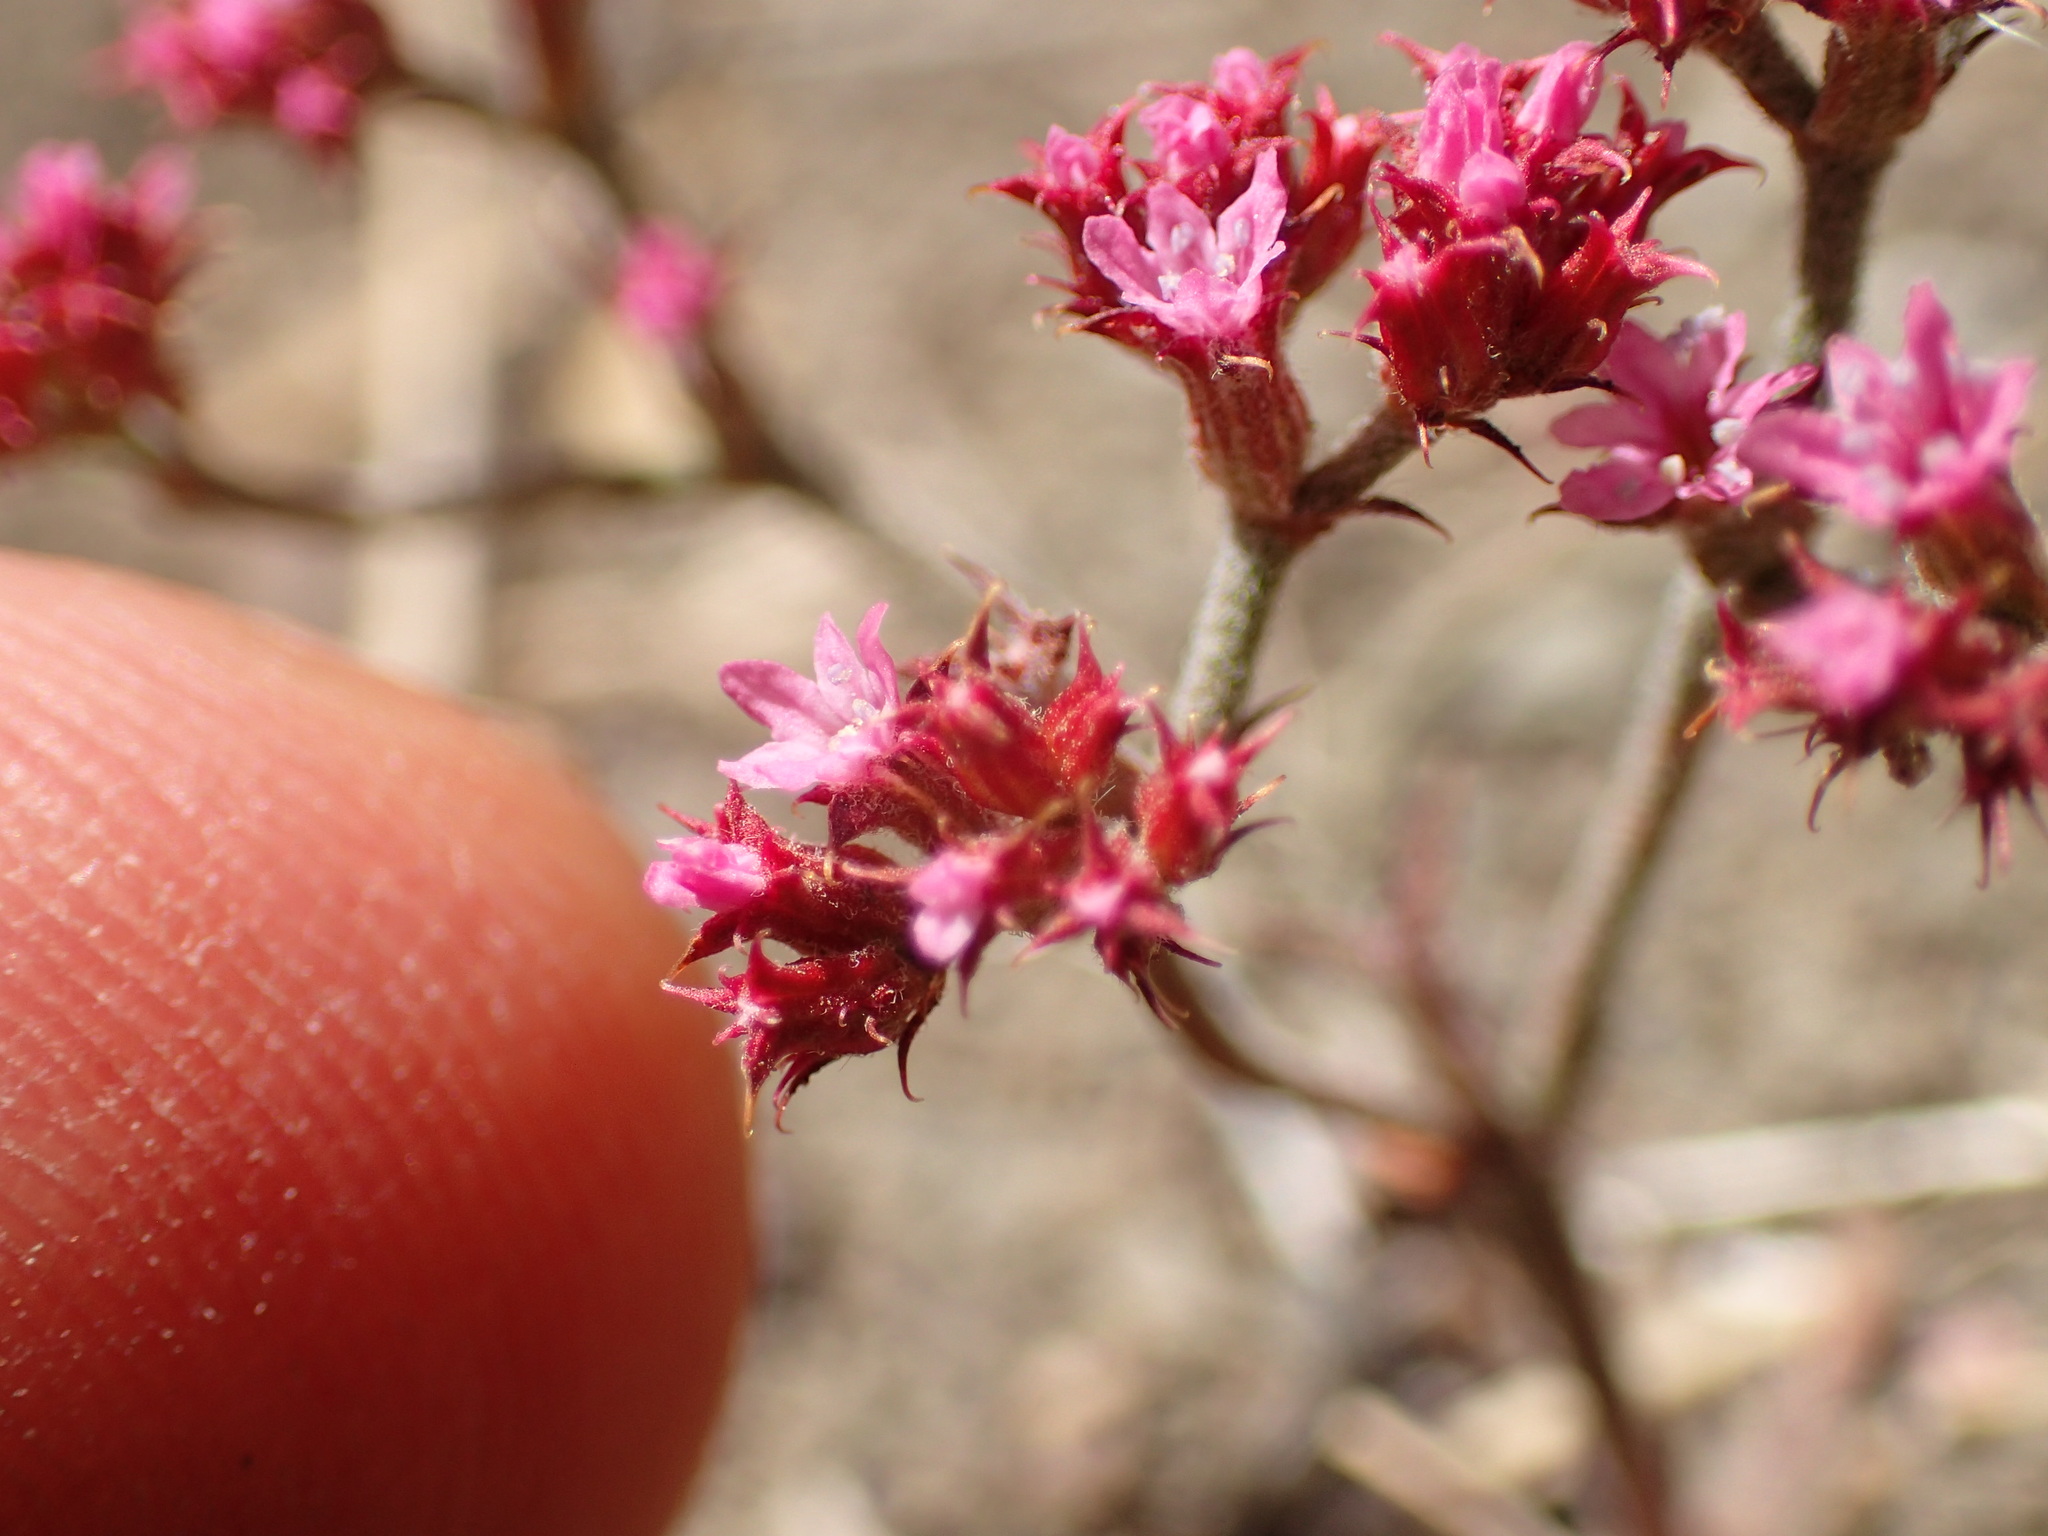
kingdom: Plantae
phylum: Tracheophyta
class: Magnoliopsida
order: Caryophyllales
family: Polygonaceae
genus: Chorizanthe
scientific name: Chorizanthe staticoides
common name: Turkish rugging
